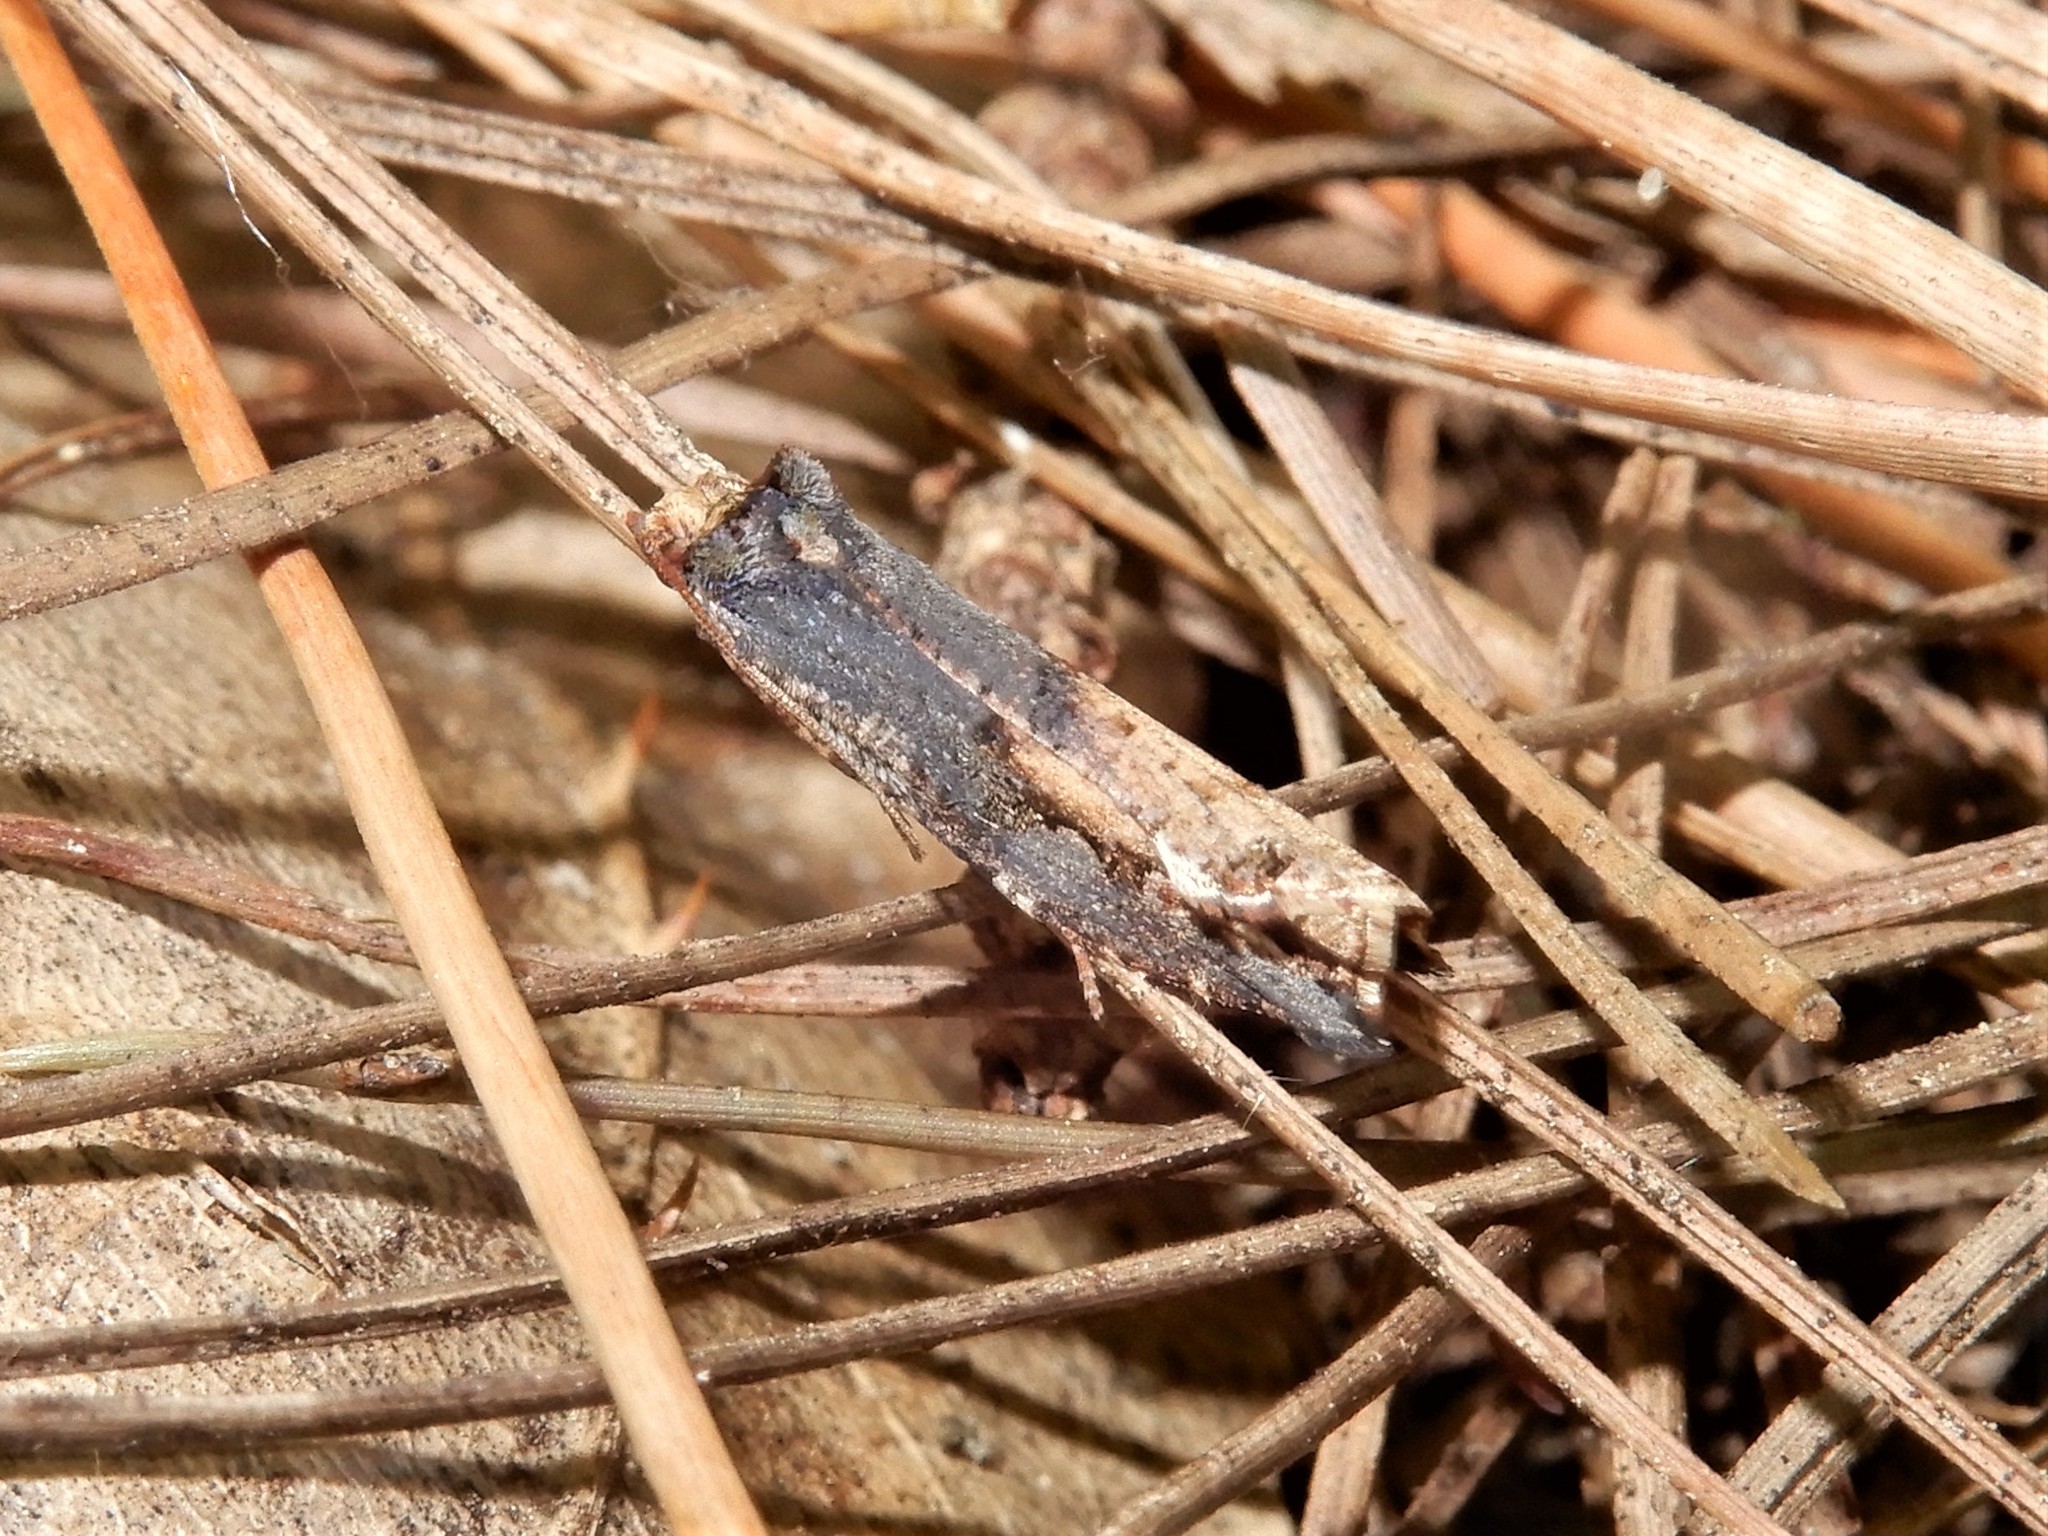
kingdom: Animalia
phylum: Arthropoda
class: Insecta
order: Lepidoptera
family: Tortricidae
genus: Epalxiphora
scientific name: Epalxiphora axenana
